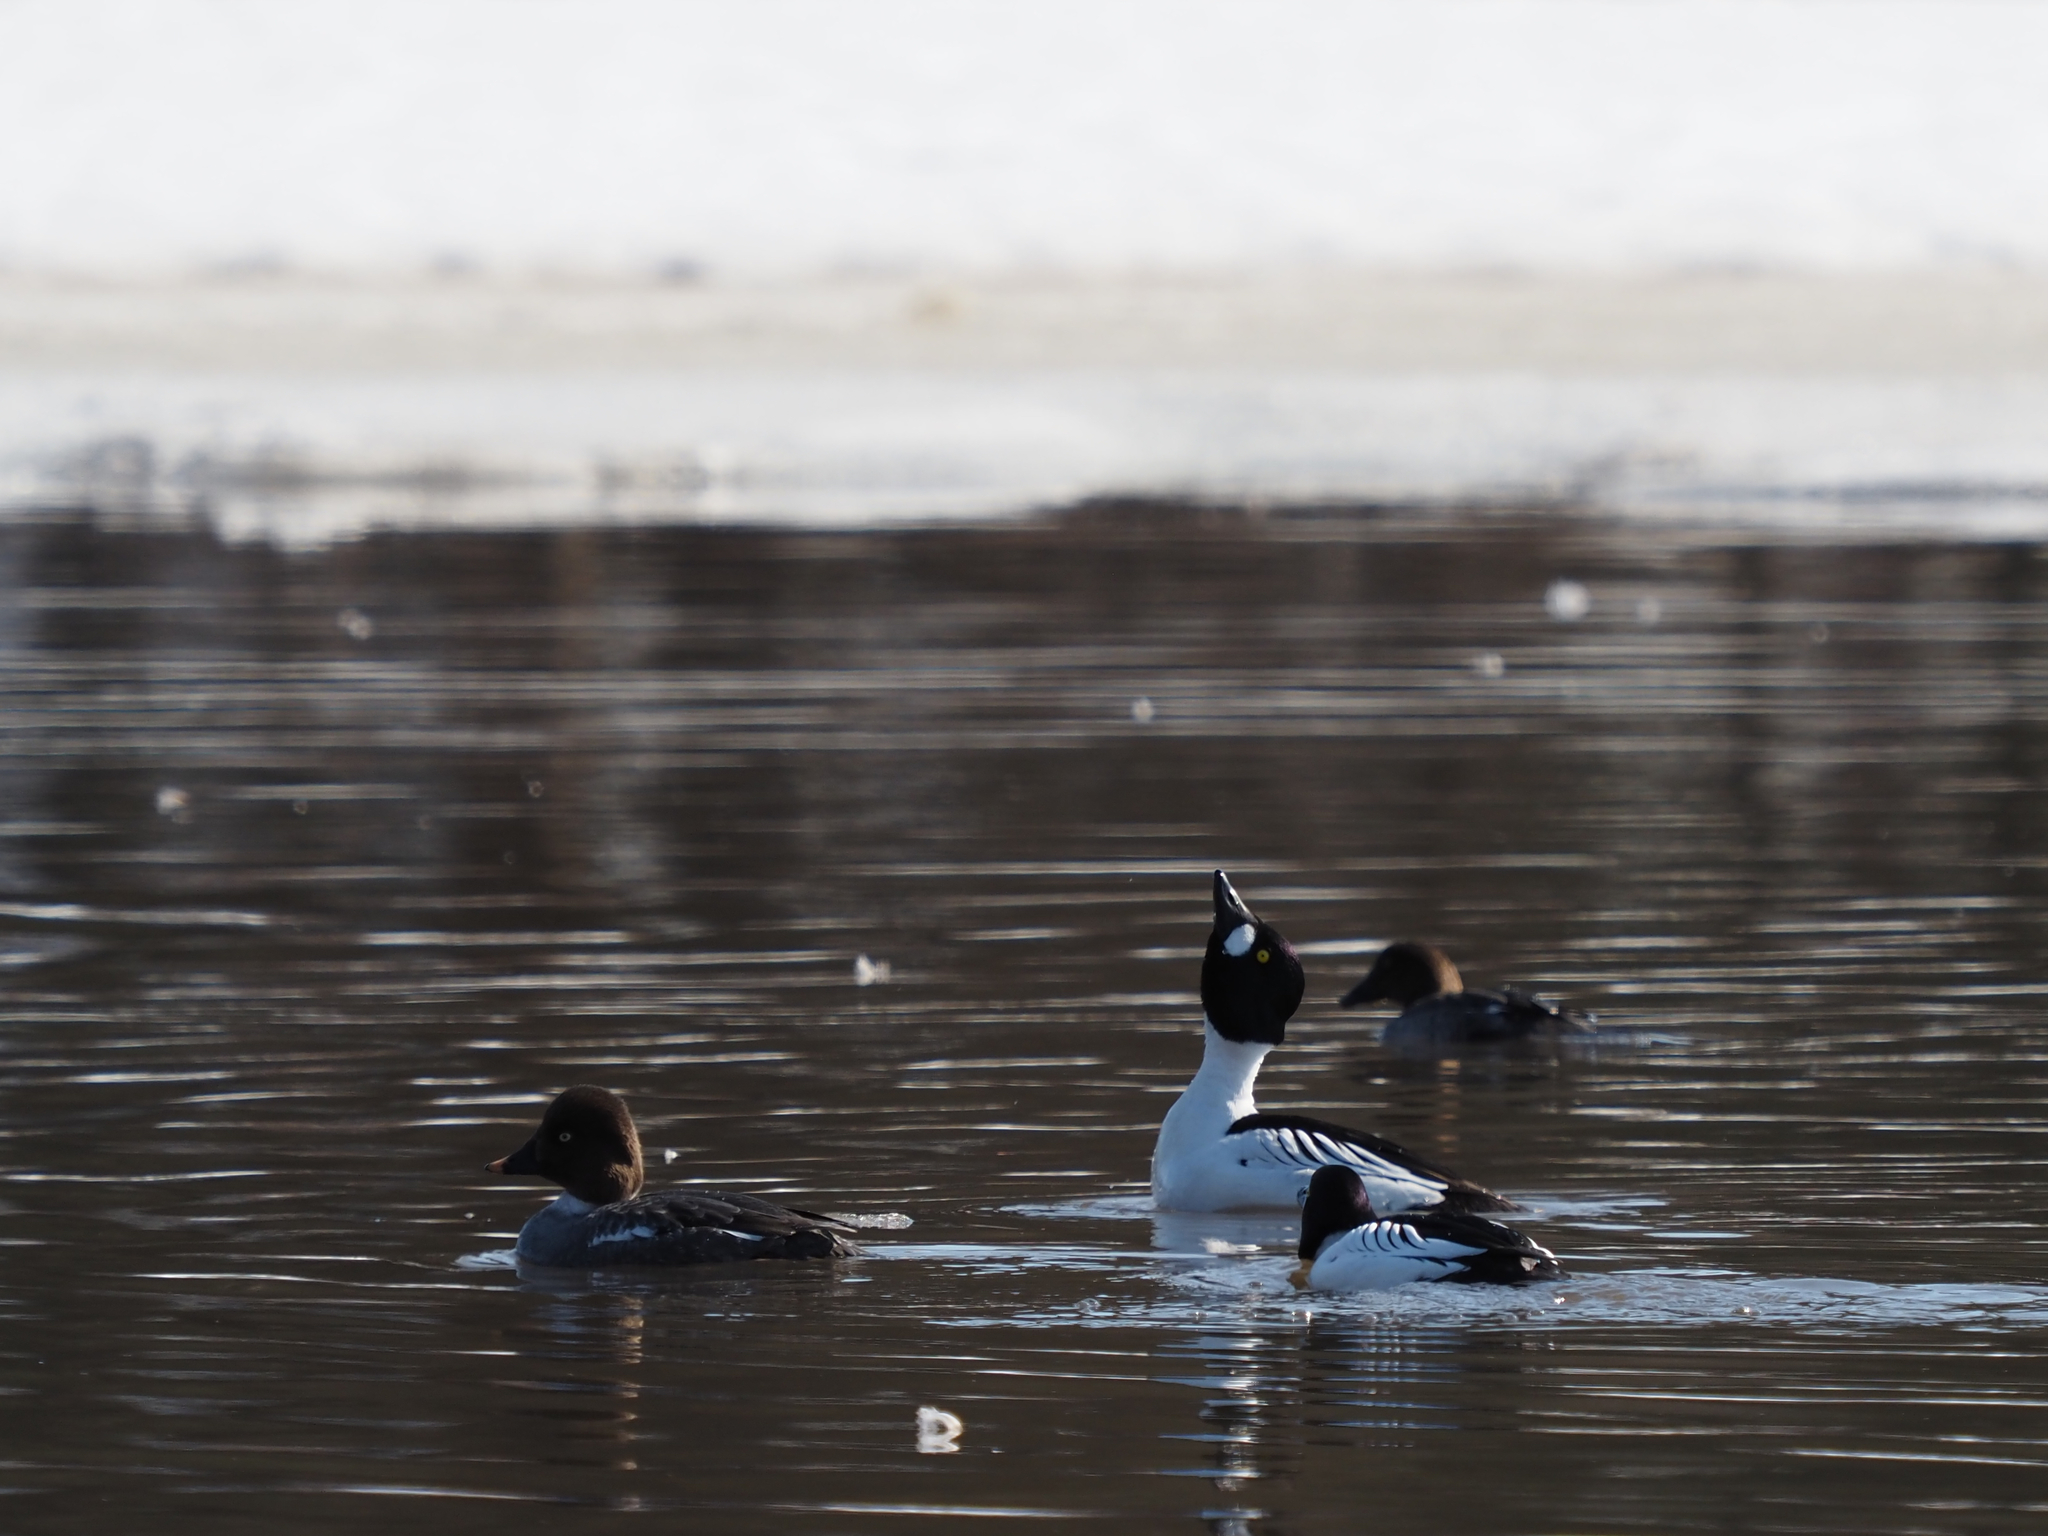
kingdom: Animalia
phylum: Chordata
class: Aves
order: Anseriformes
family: Anatidae
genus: Bucephala
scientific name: Bucephala clangula
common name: Common goldeneye
